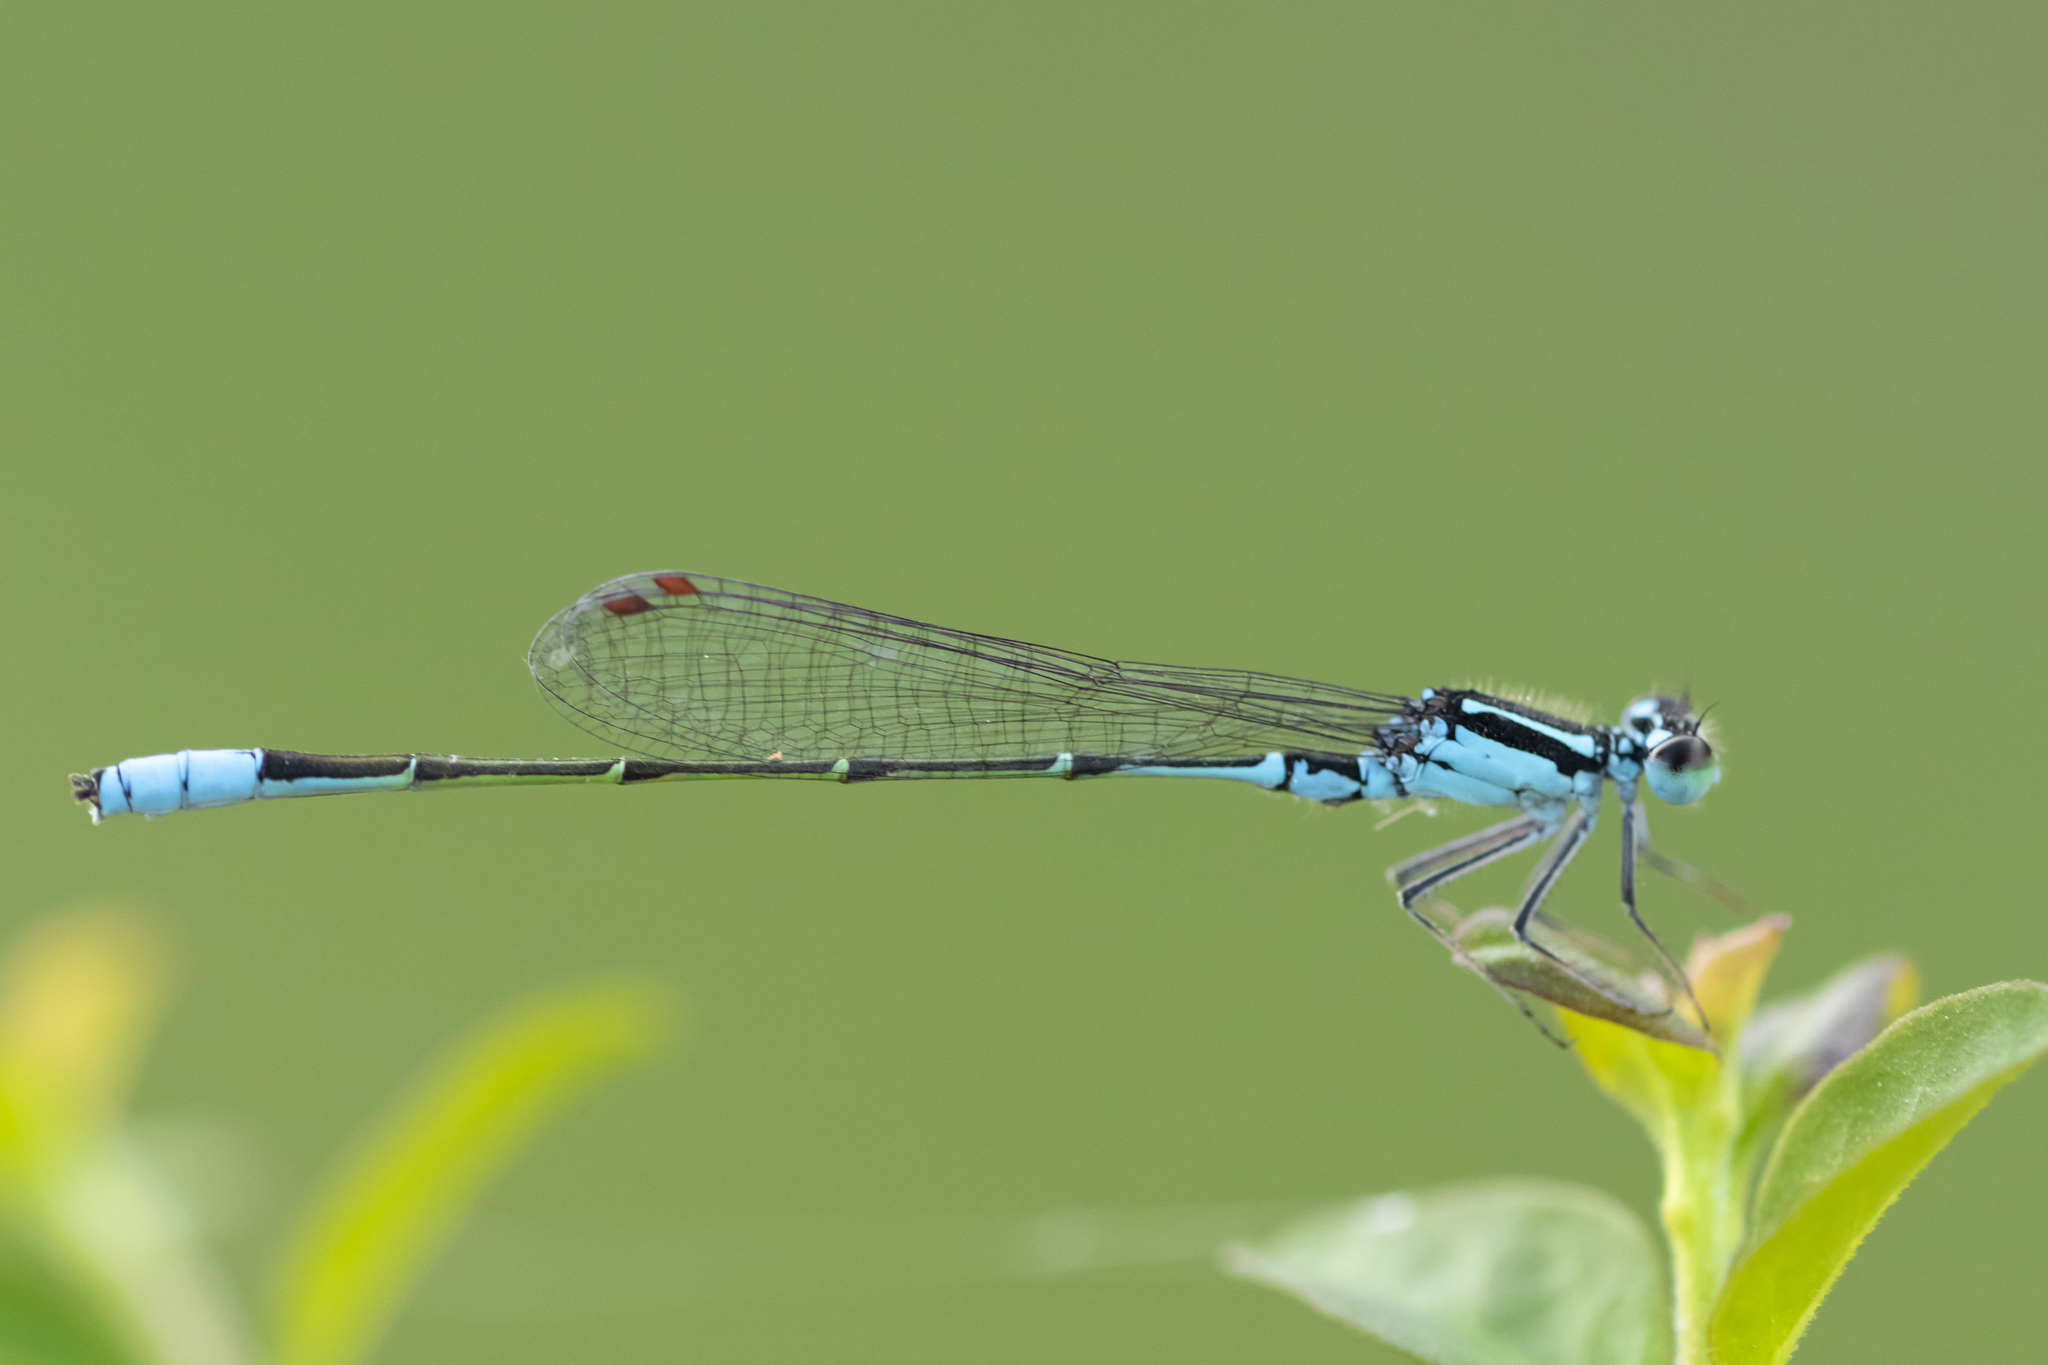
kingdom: Animalia
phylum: Arthropoda
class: Insecta
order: Odonata
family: Coenagrionidae
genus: Homeoura
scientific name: Homeoura lindneri
